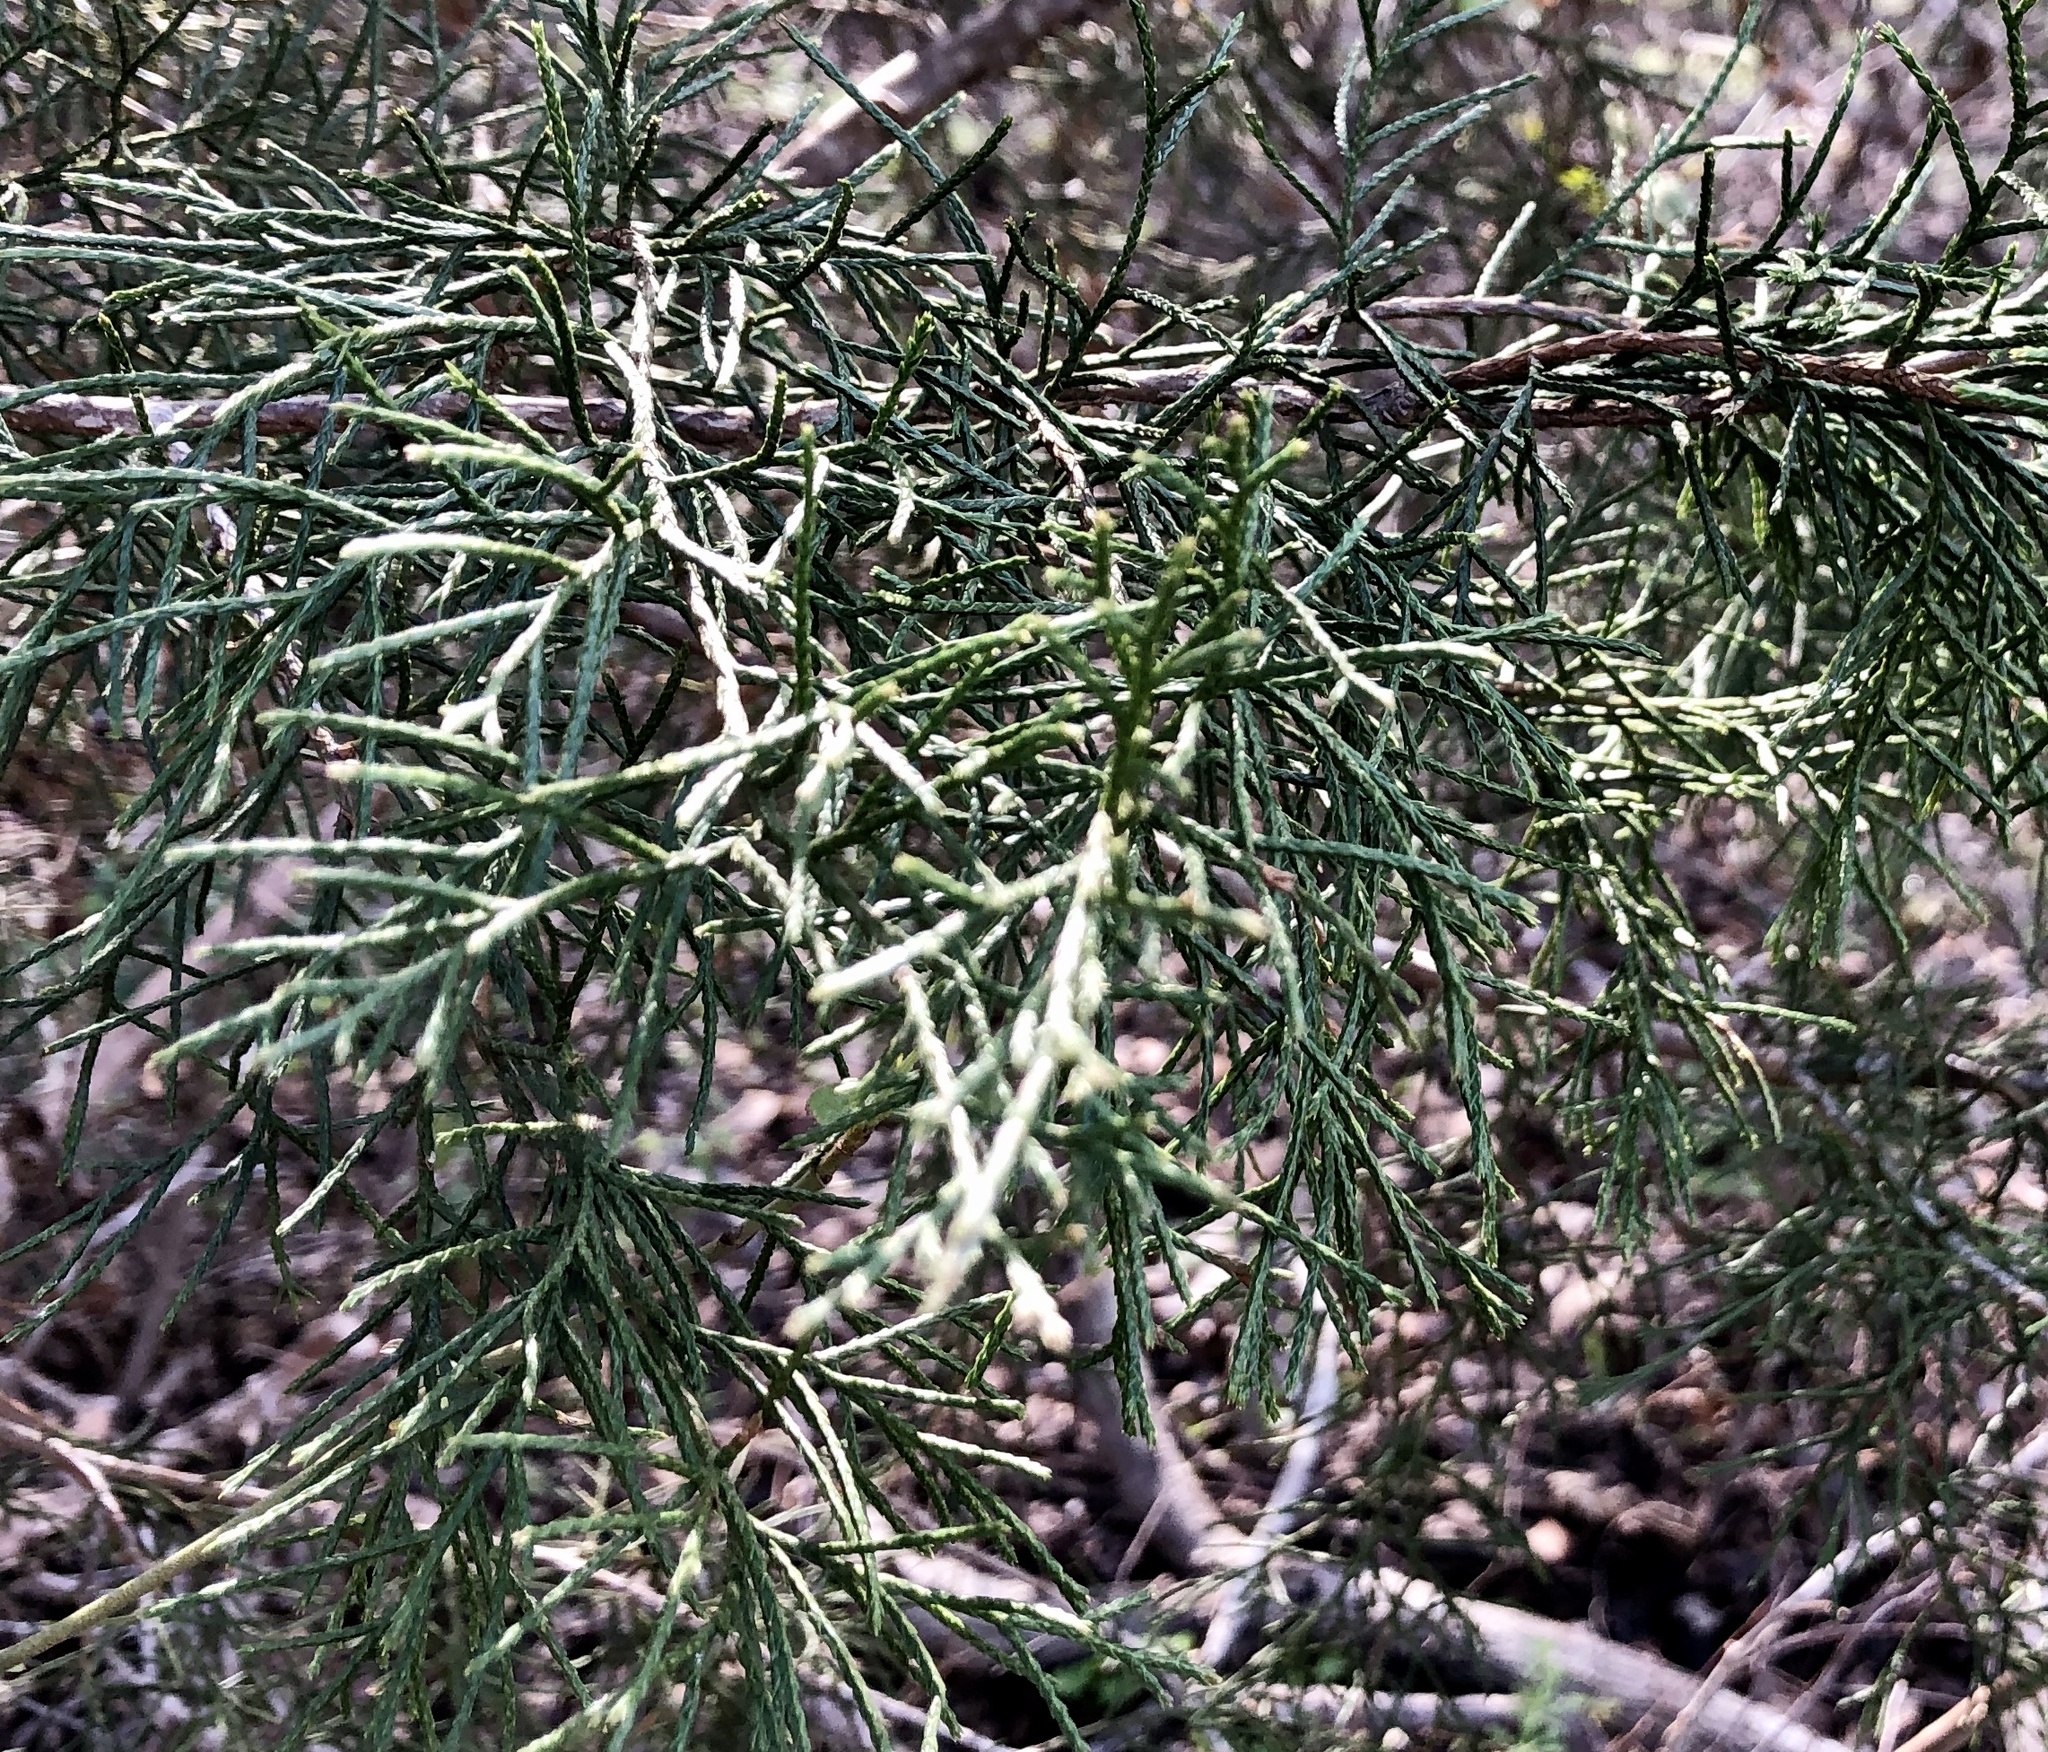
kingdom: Plantae
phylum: Tracheophyta
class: Pinopsida
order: Pinales
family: Cupressaceae
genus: Juniperus
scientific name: Juniperus virginiana
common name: Red juniper
